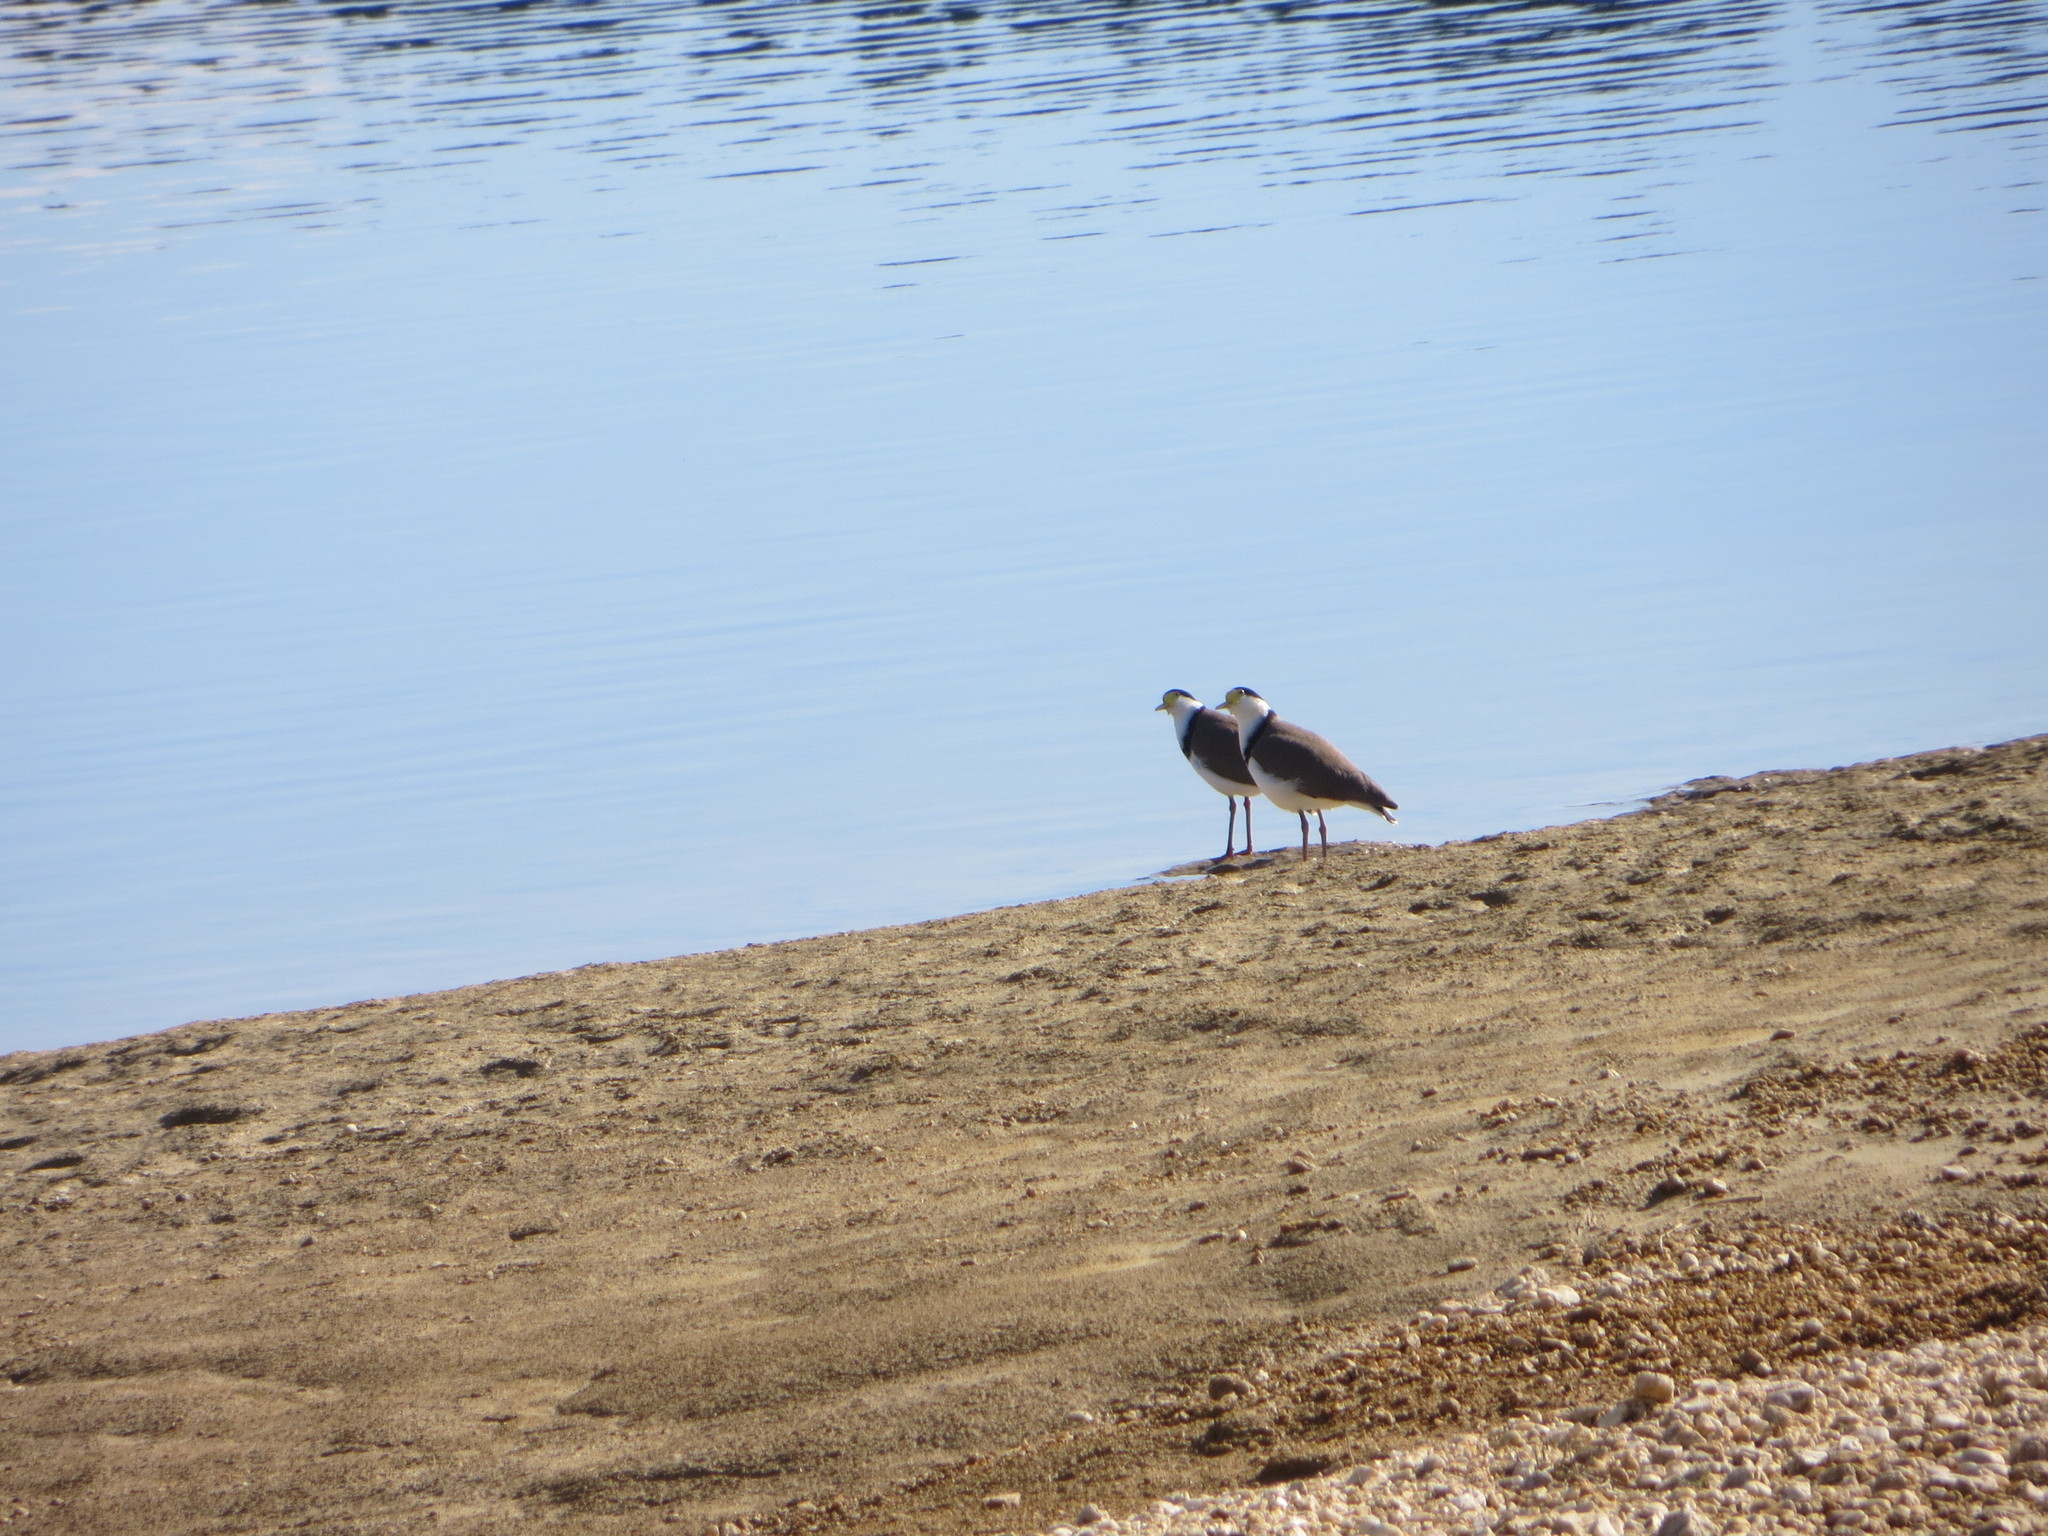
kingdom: Animalia
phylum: Chordata
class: Aves
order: Charadriiformes
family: Charadriidae
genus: Vanellus
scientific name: Vanellus miles
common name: Masked lapwing
